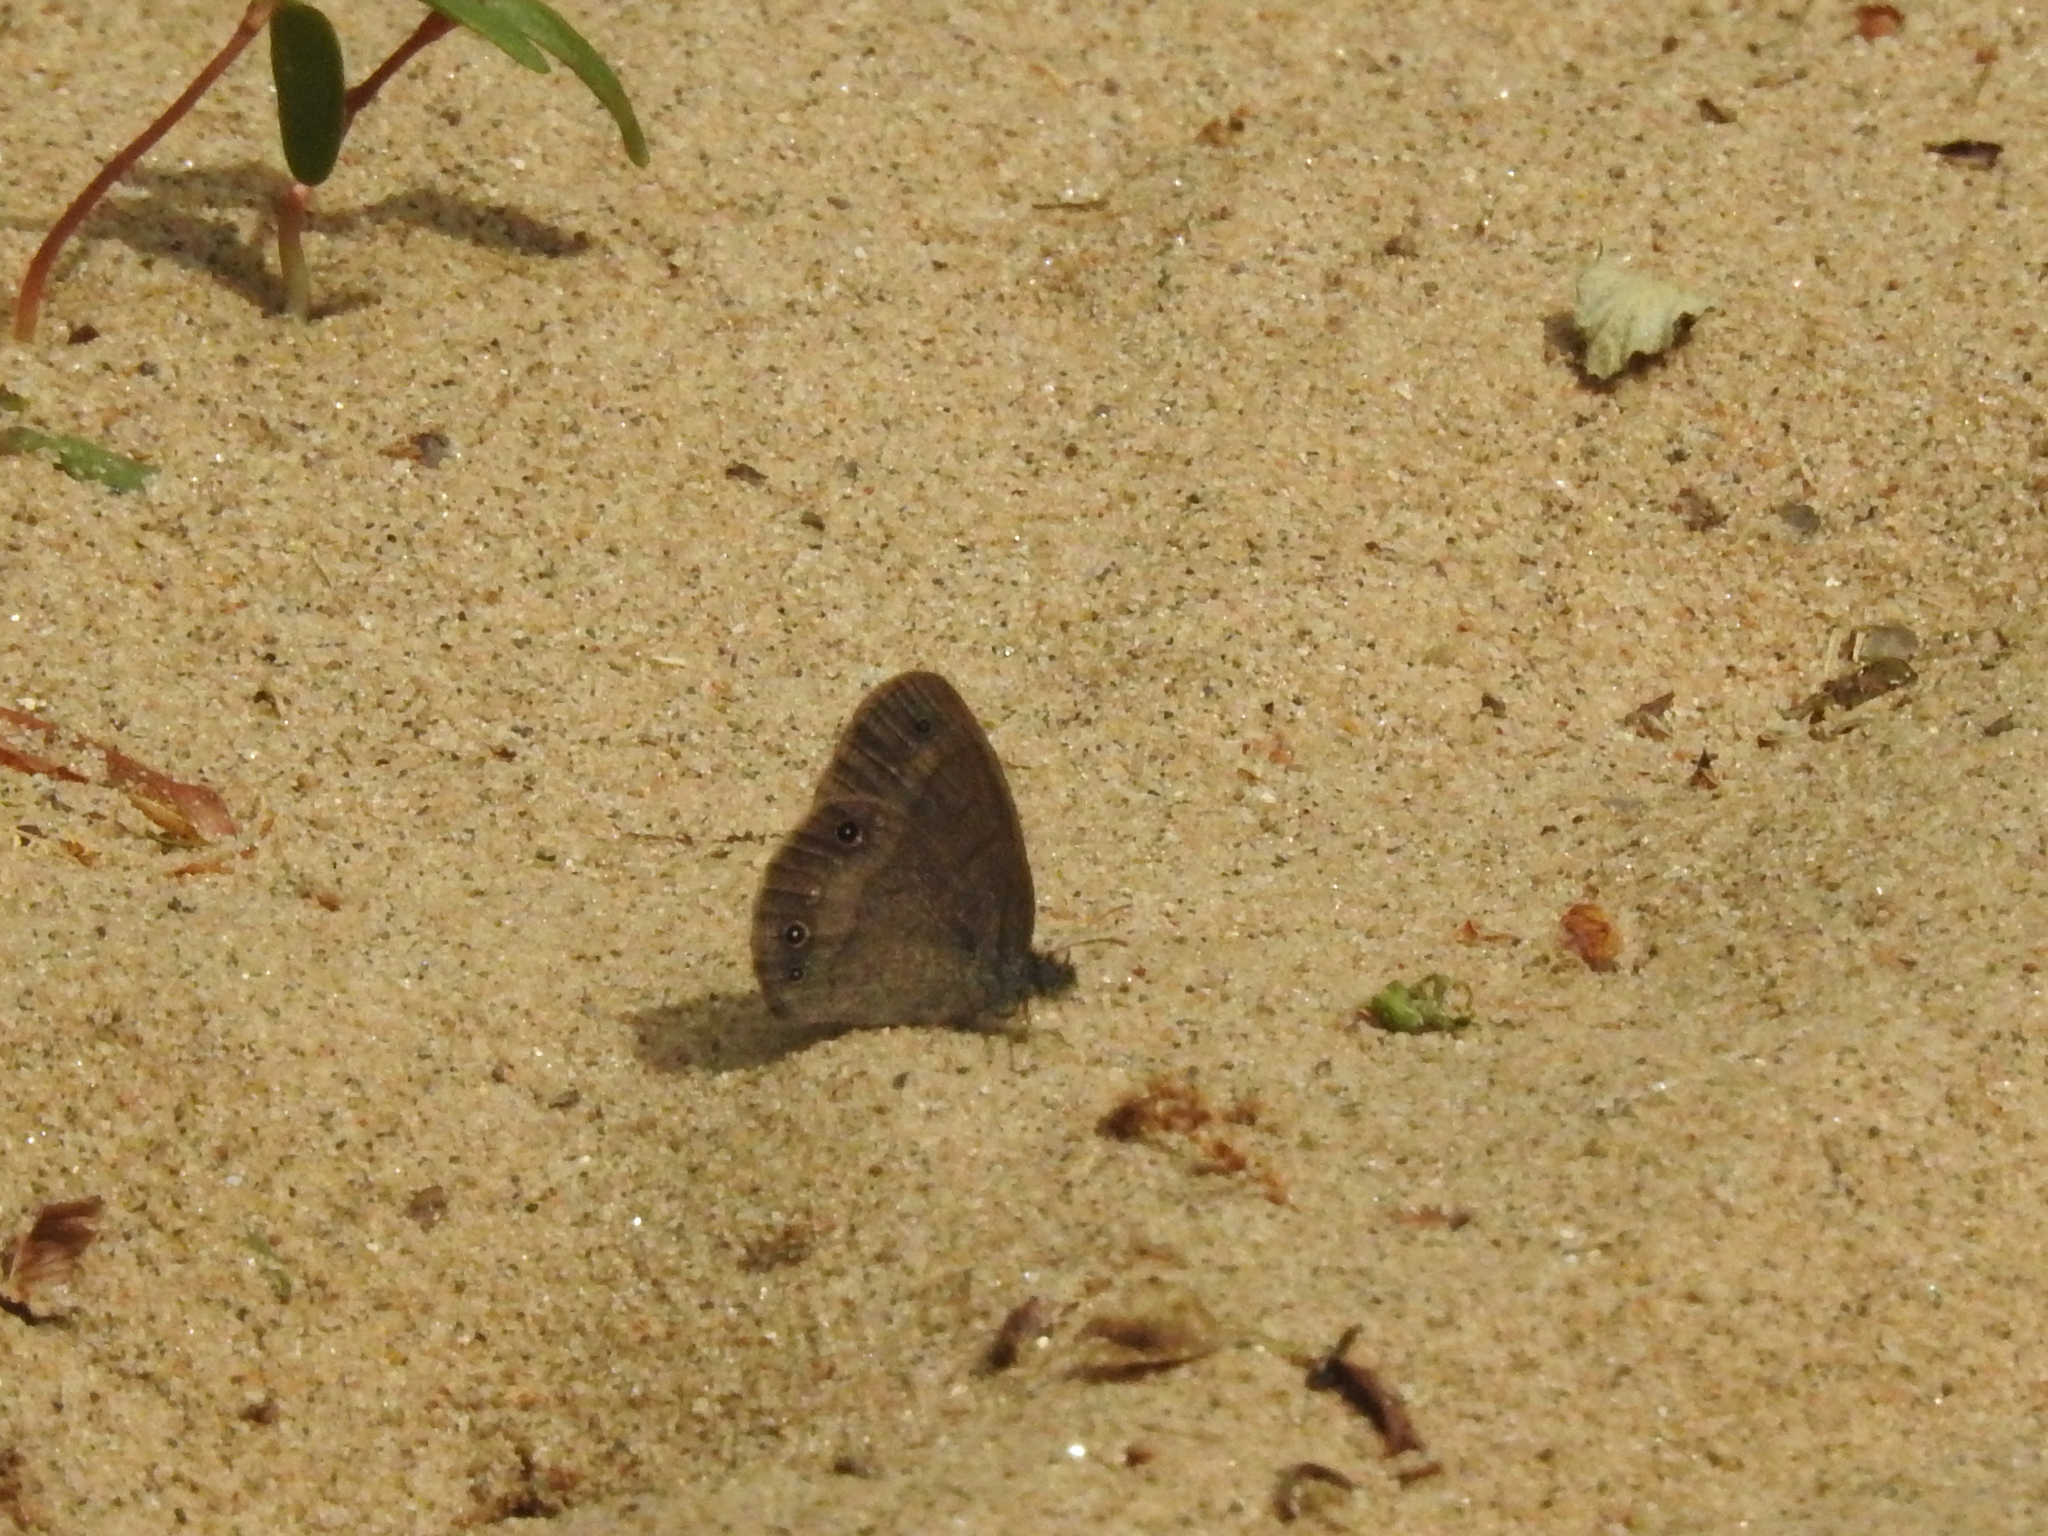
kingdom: Animalia
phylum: Arthropoda
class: Insecta
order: Lepidoptera
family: Nymphalidae
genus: Hermeuptychia
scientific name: Hermeuptychia hermes
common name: Hermes satyr
